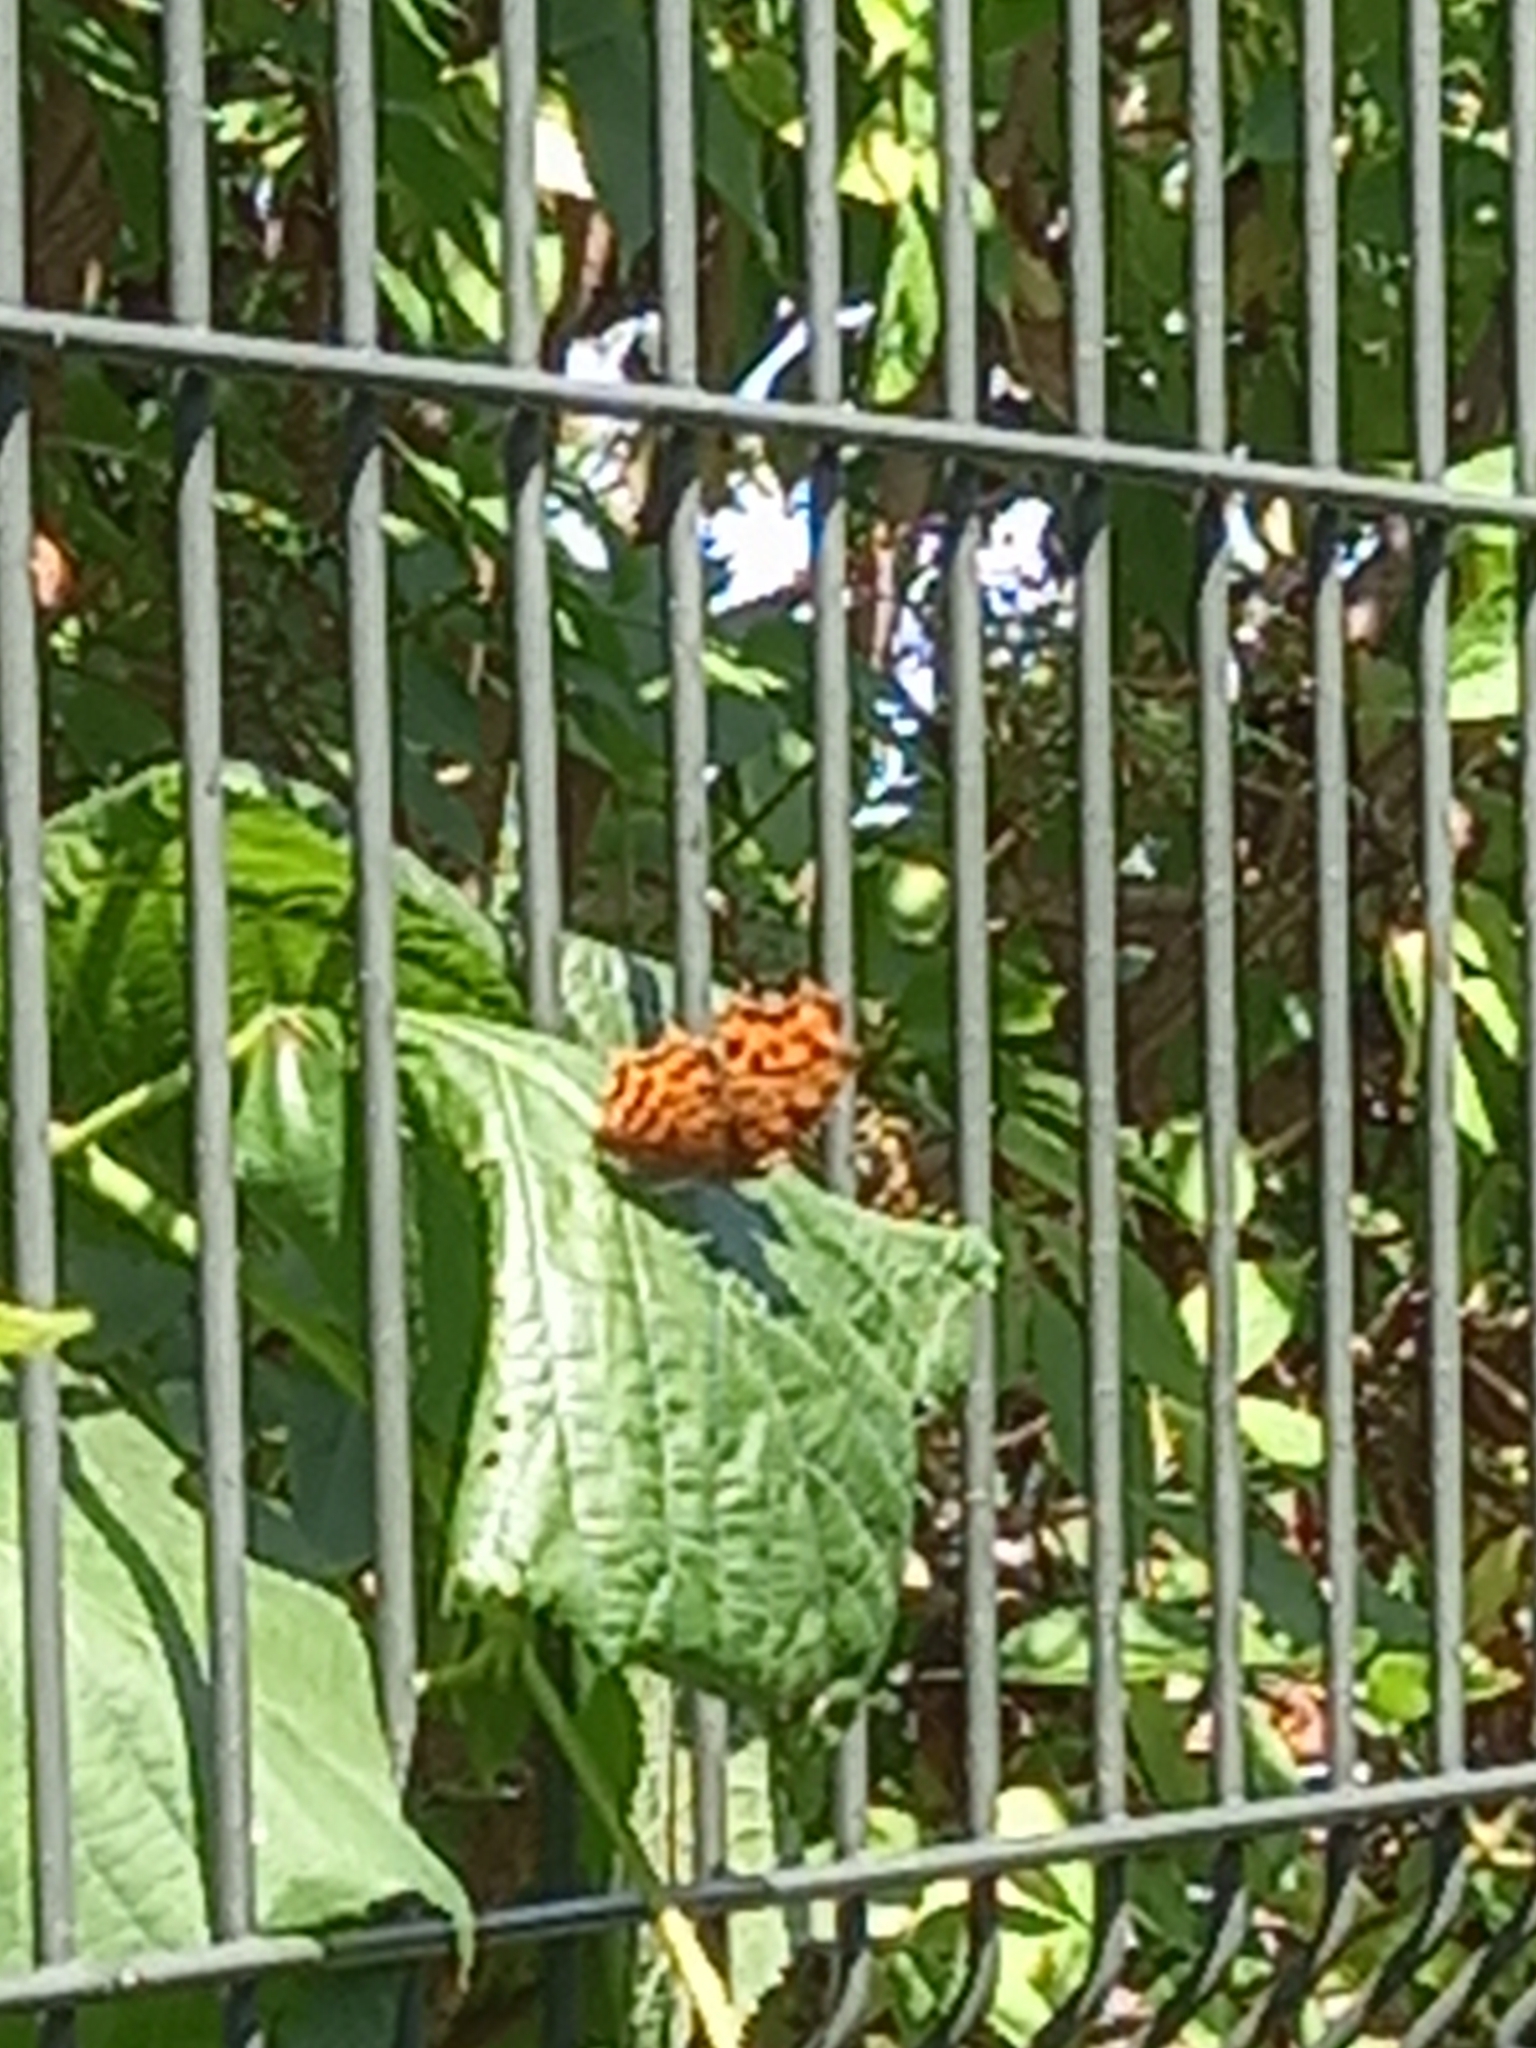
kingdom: Animalia
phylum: Arthropoda
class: Insecta
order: Lepidoptera
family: Nymphalidae
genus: Polygonia
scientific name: Polygonia c-album
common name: Comma
